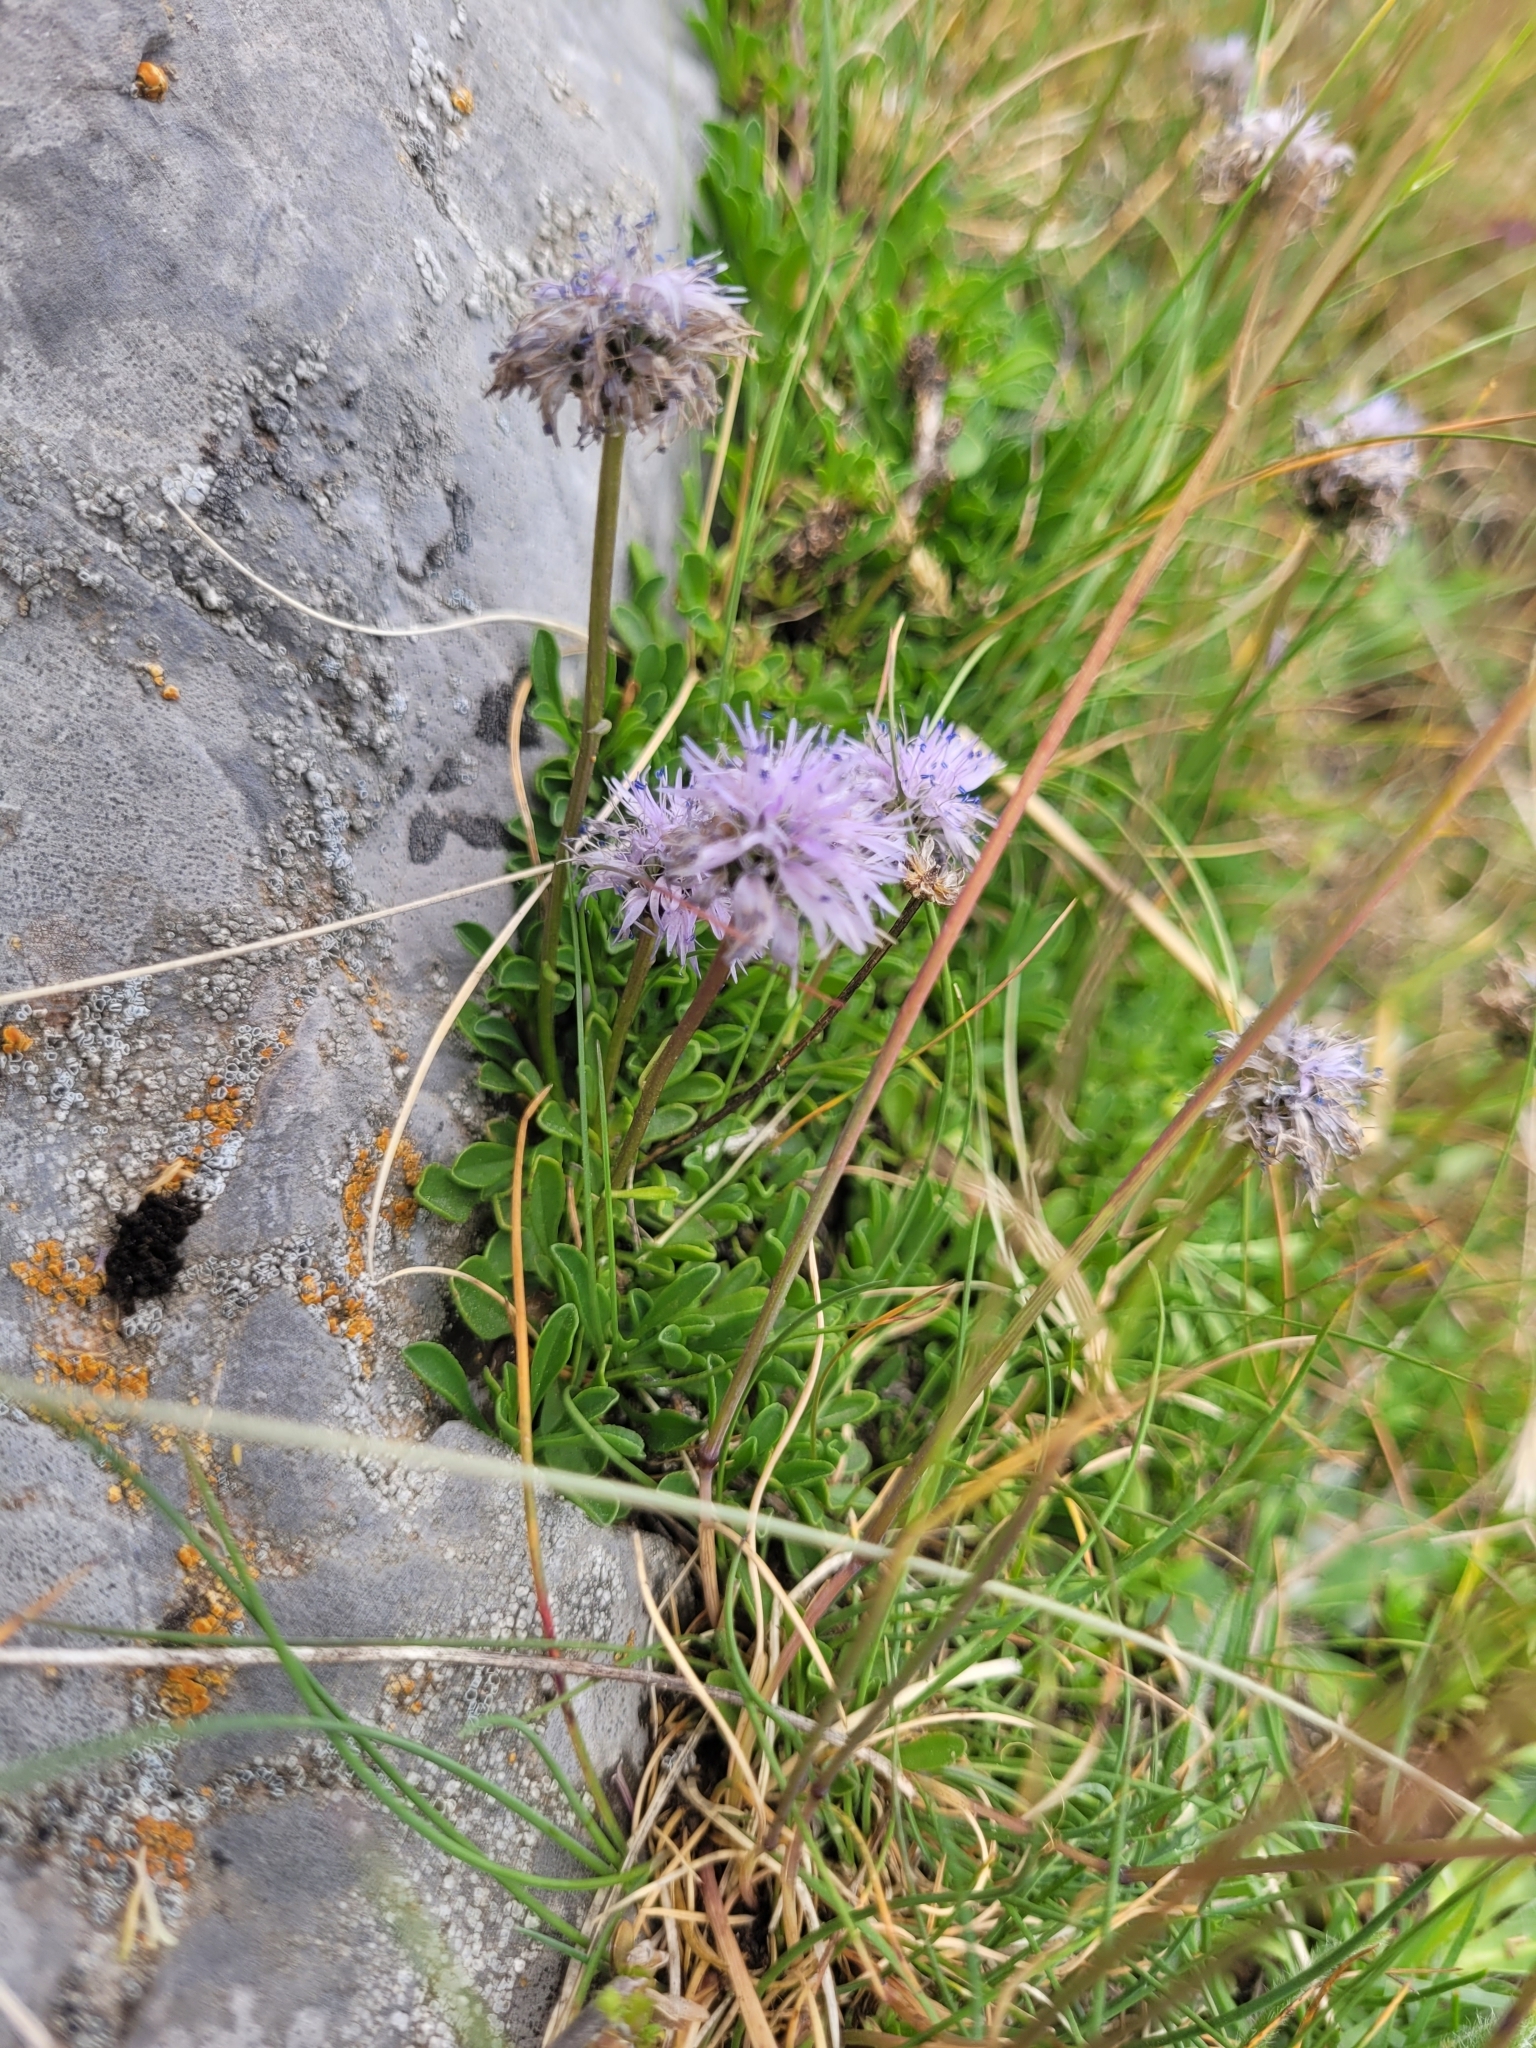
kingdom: Plantae
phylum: Tracheophyta
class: Magnoliopsida
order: Lamiales
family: Plantaginaceae
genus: Globularia
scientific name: Globularia cordifolia
